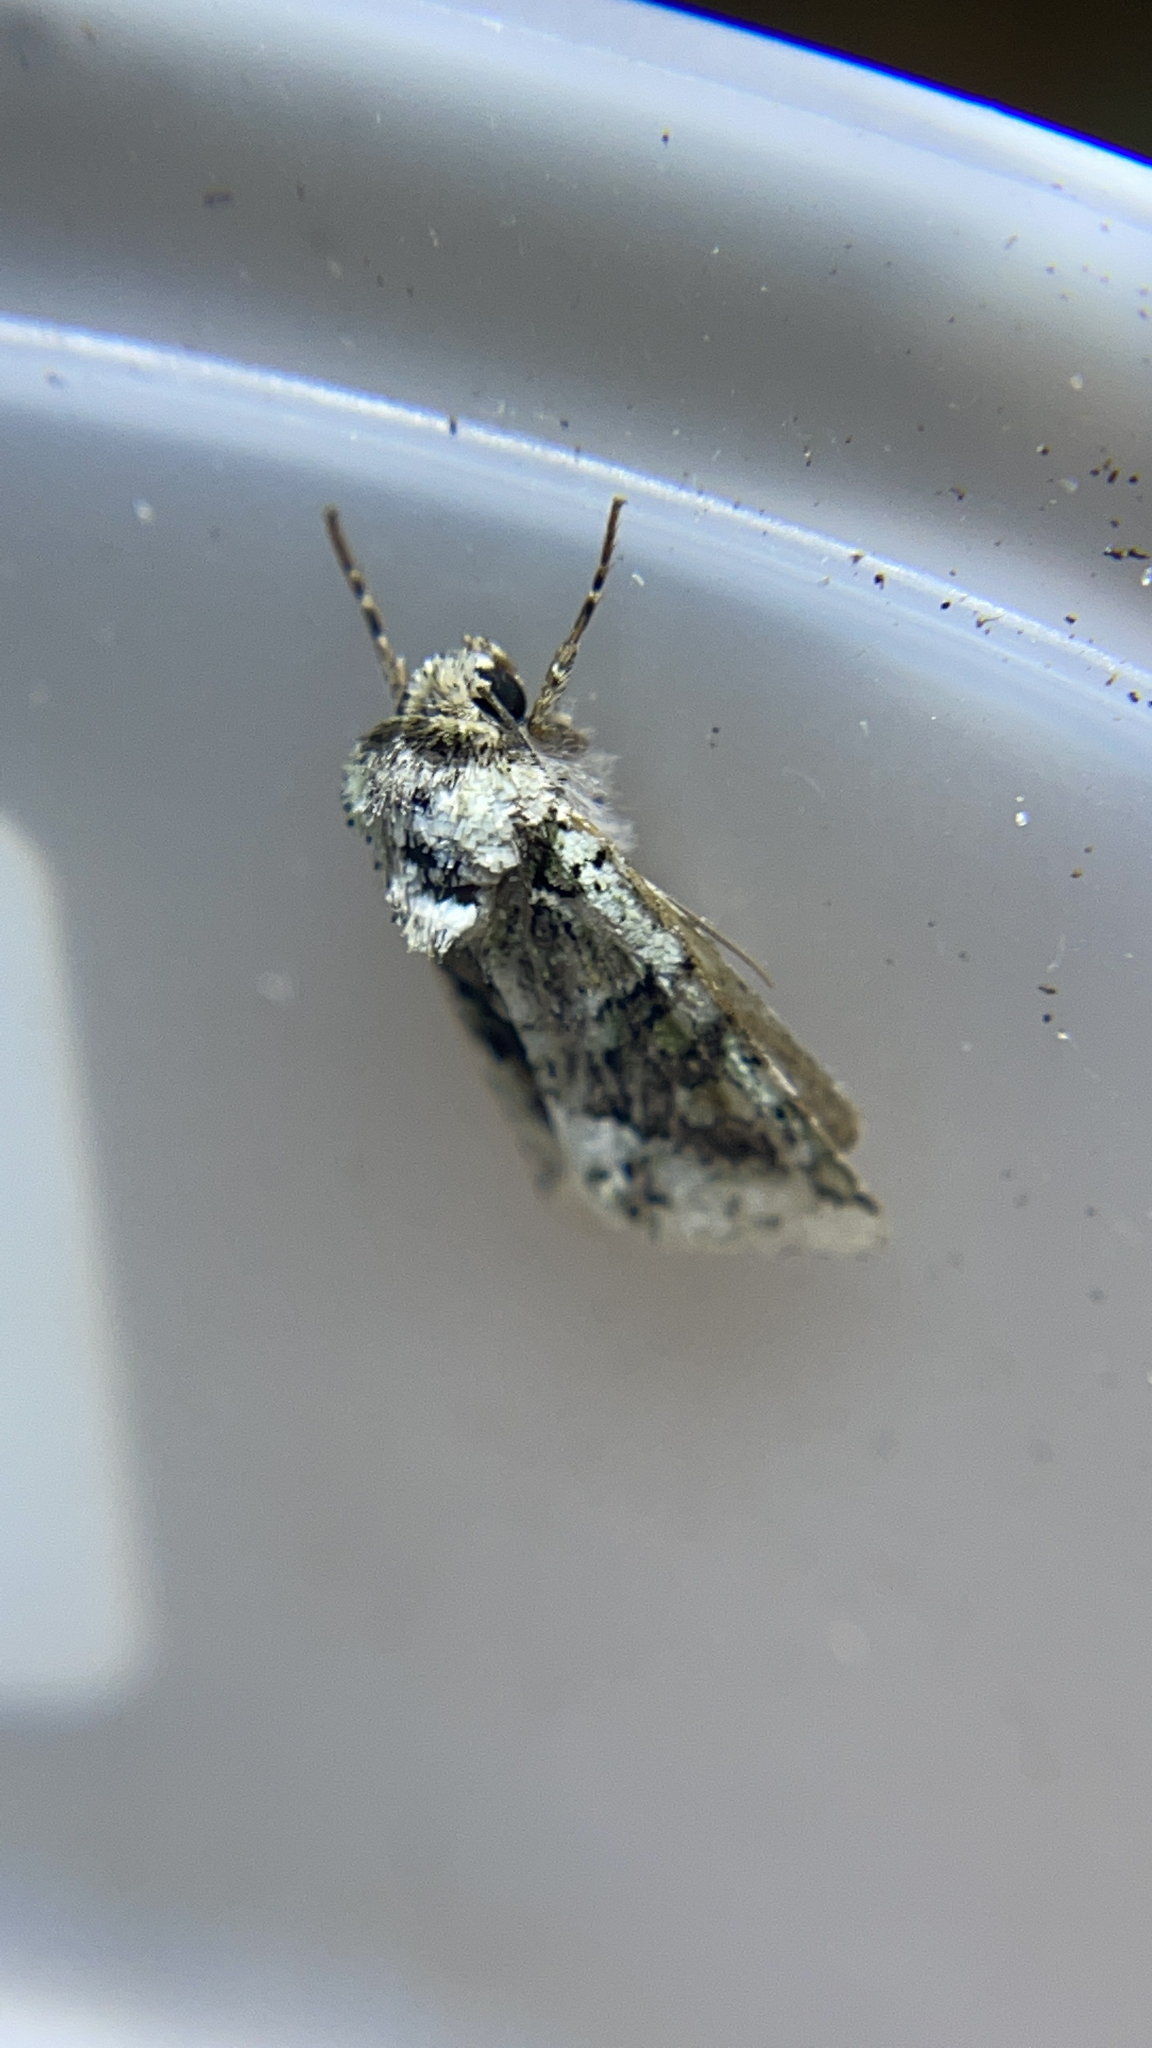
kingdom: Animalia
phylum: Arthropoda
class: Insecta
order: Lepidoptera
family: Noctuidae
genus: Lacinipolia
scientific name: Lacinipolia explicata
